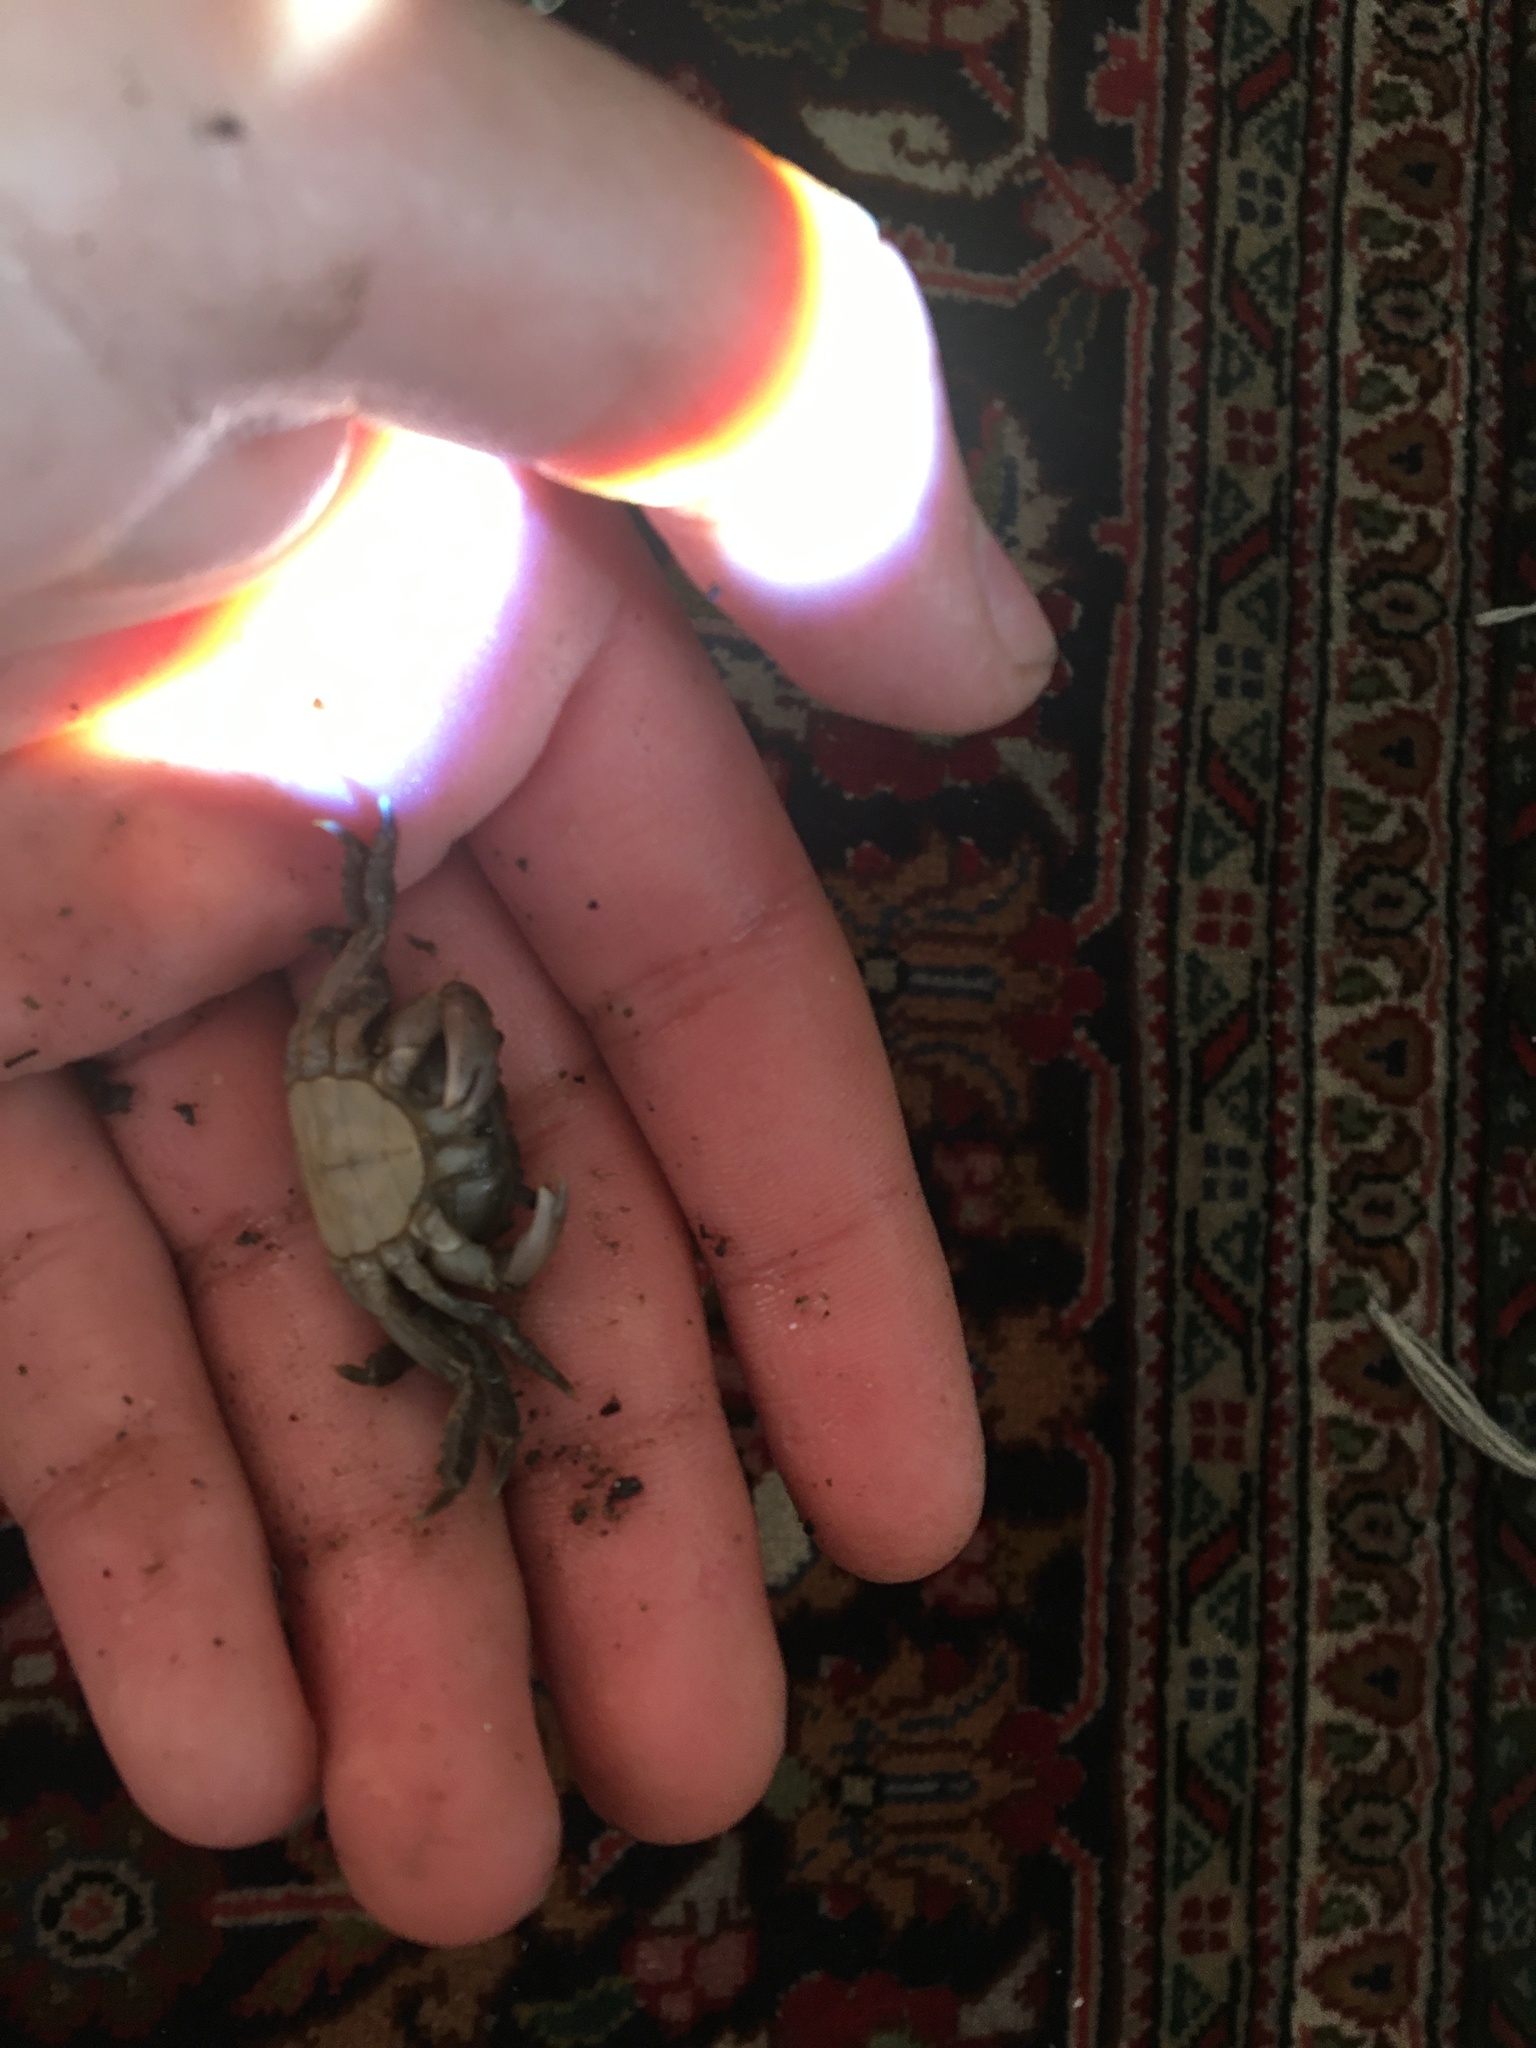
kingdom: Animalia
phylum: Arthropoda
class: Malacostraca
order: Decapoda
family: Varunidae
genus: Hemigrapsus
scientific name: Hemigrapsus oregonensis
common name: Yellow shore crab
